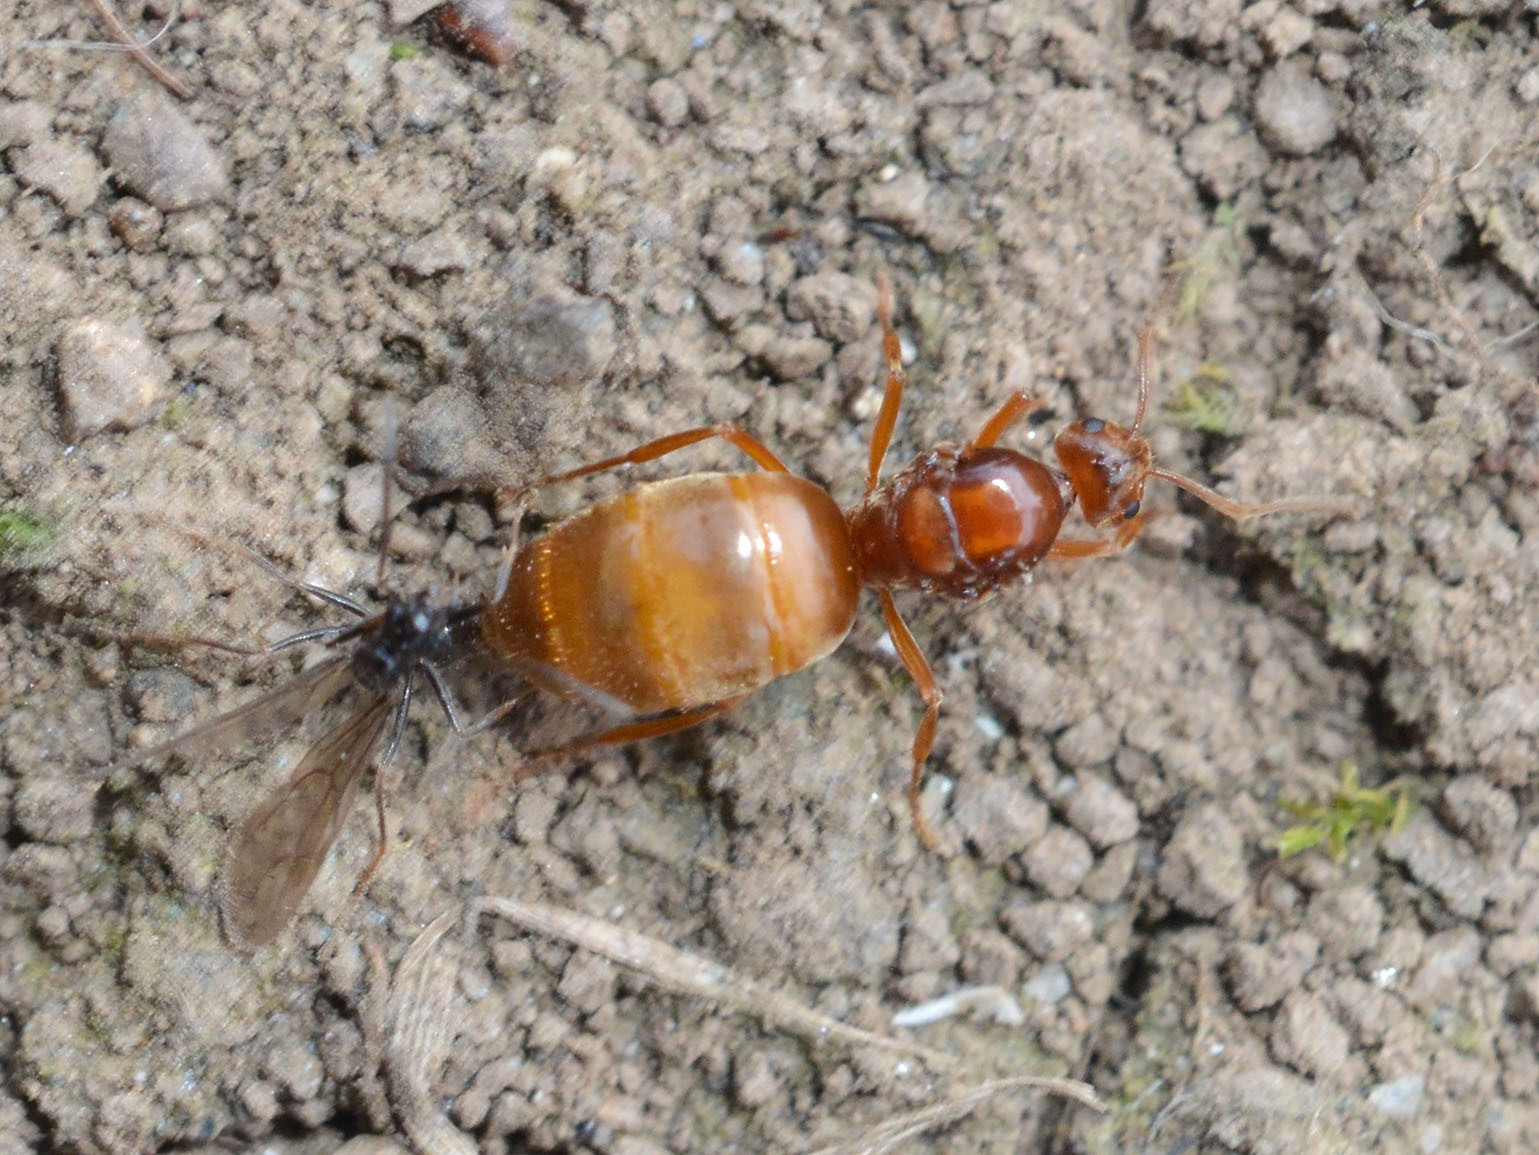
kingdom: Animalia
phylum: Arthropoda
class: Insecta
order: Hymenoptera
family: Formicidae
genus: Prenolepis
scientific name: Prenolepis nitens
